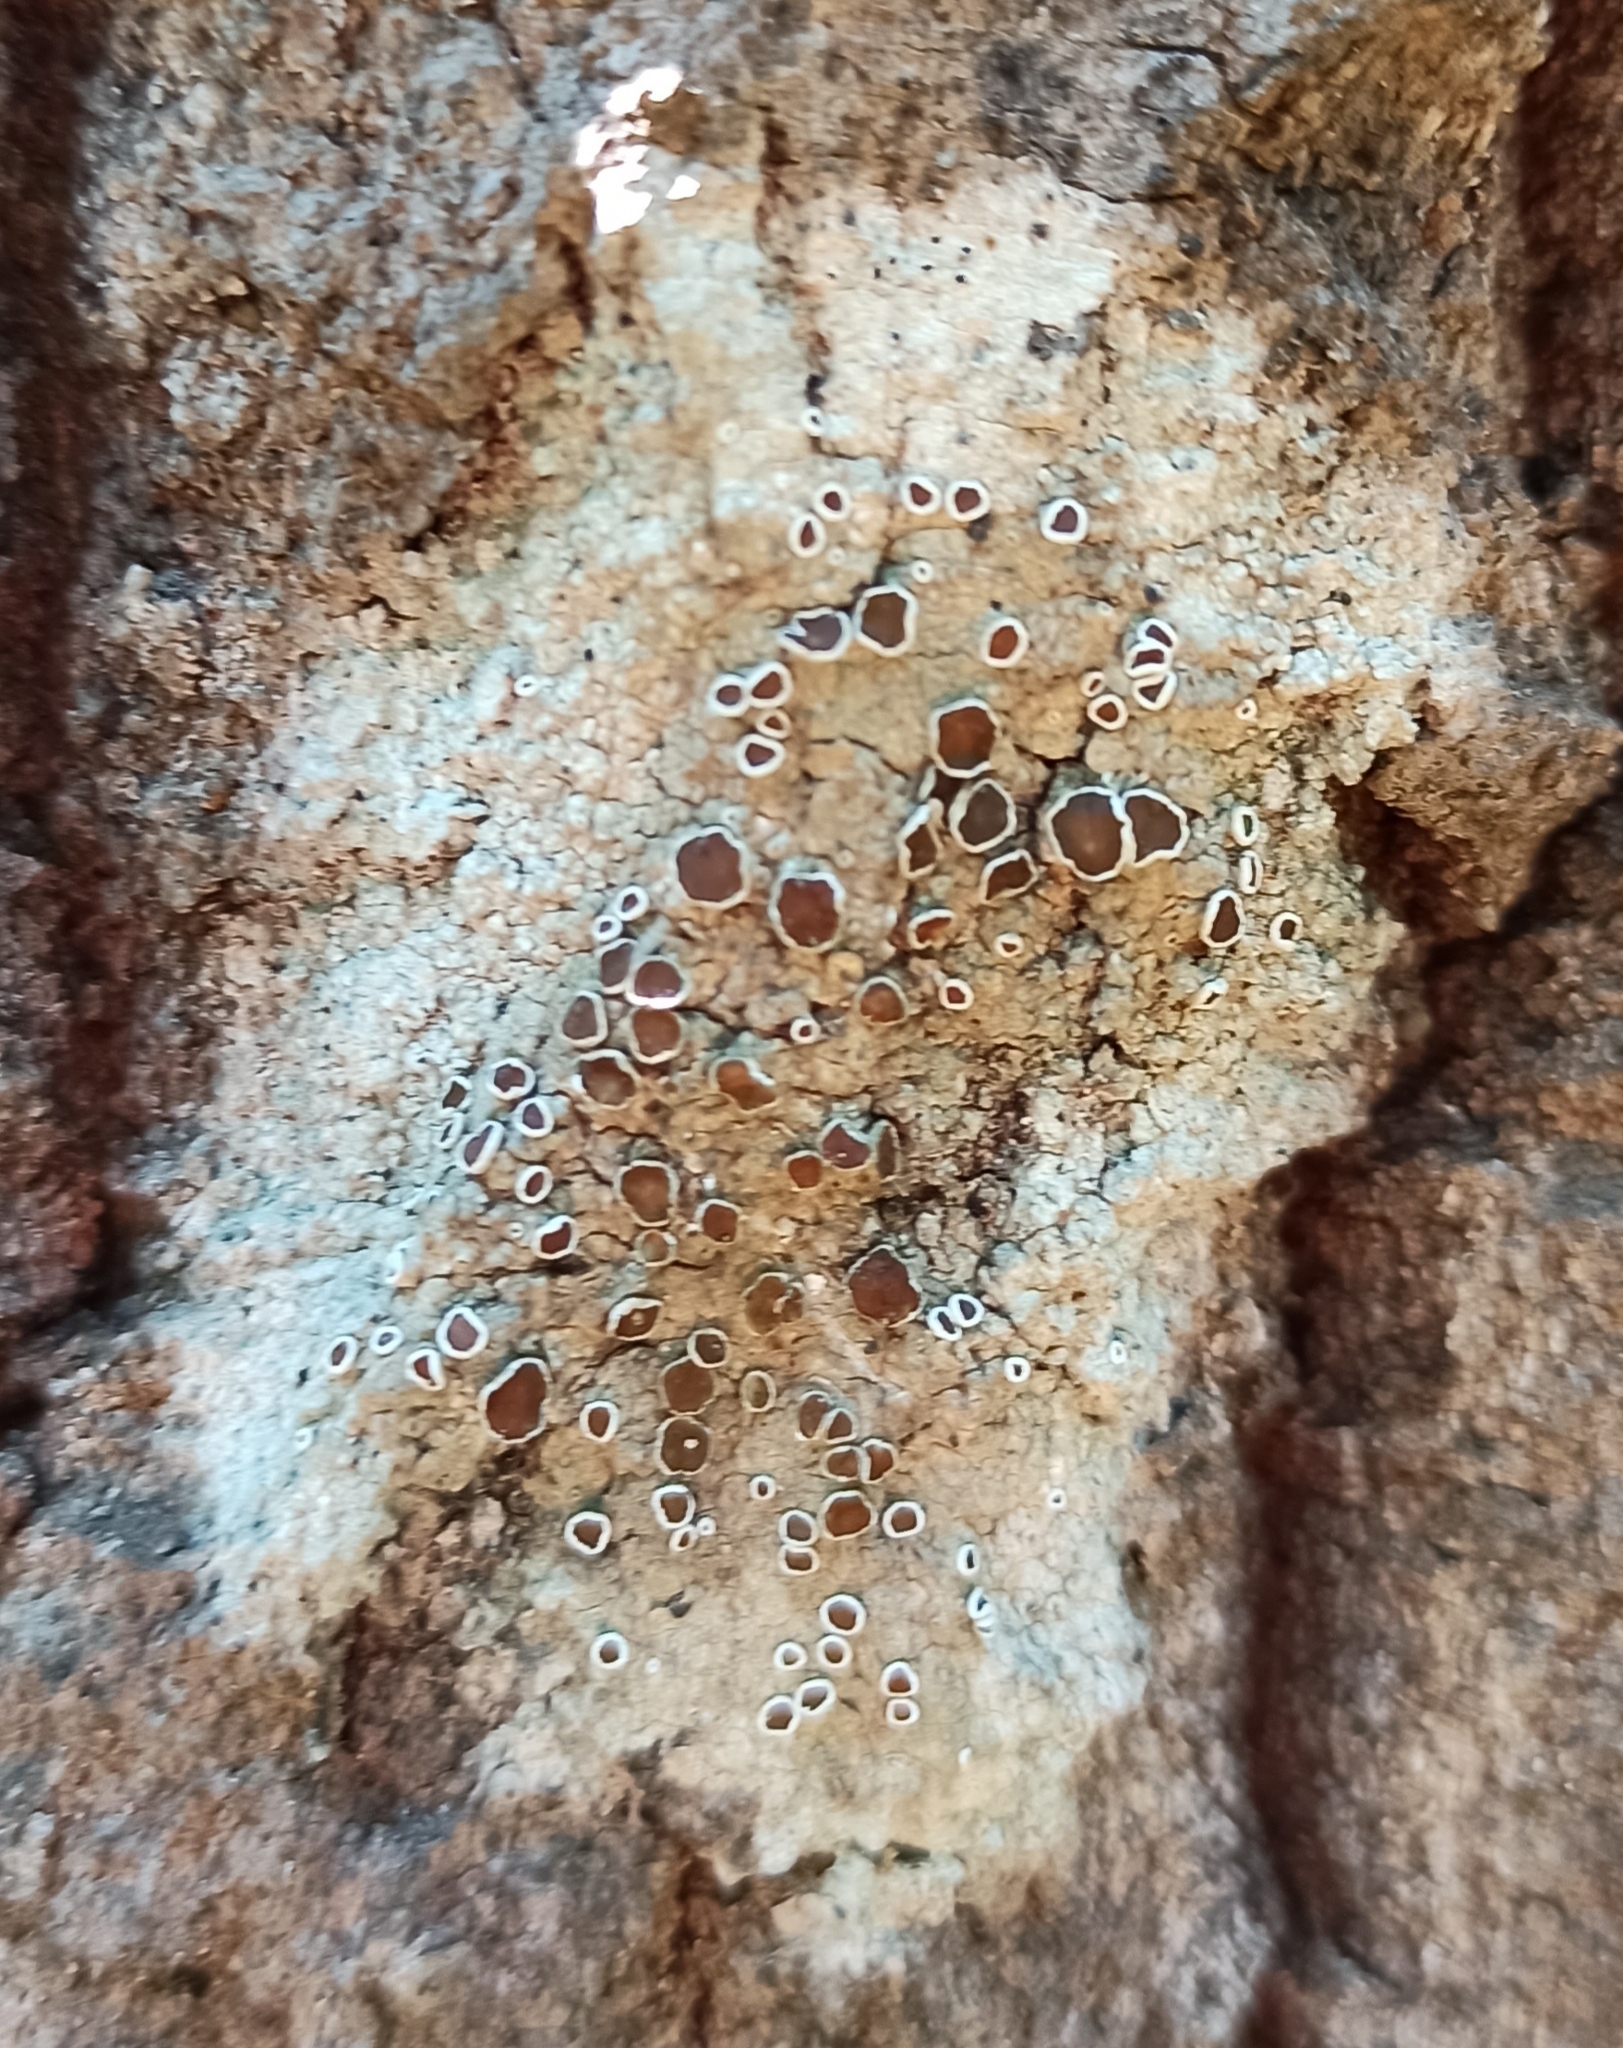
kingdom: Fungi
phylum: Ascomycota
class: Lecanoromycetes
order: Lecanorales
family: Lecanoraceae
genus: Lecanora
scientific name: Lecanora albella
